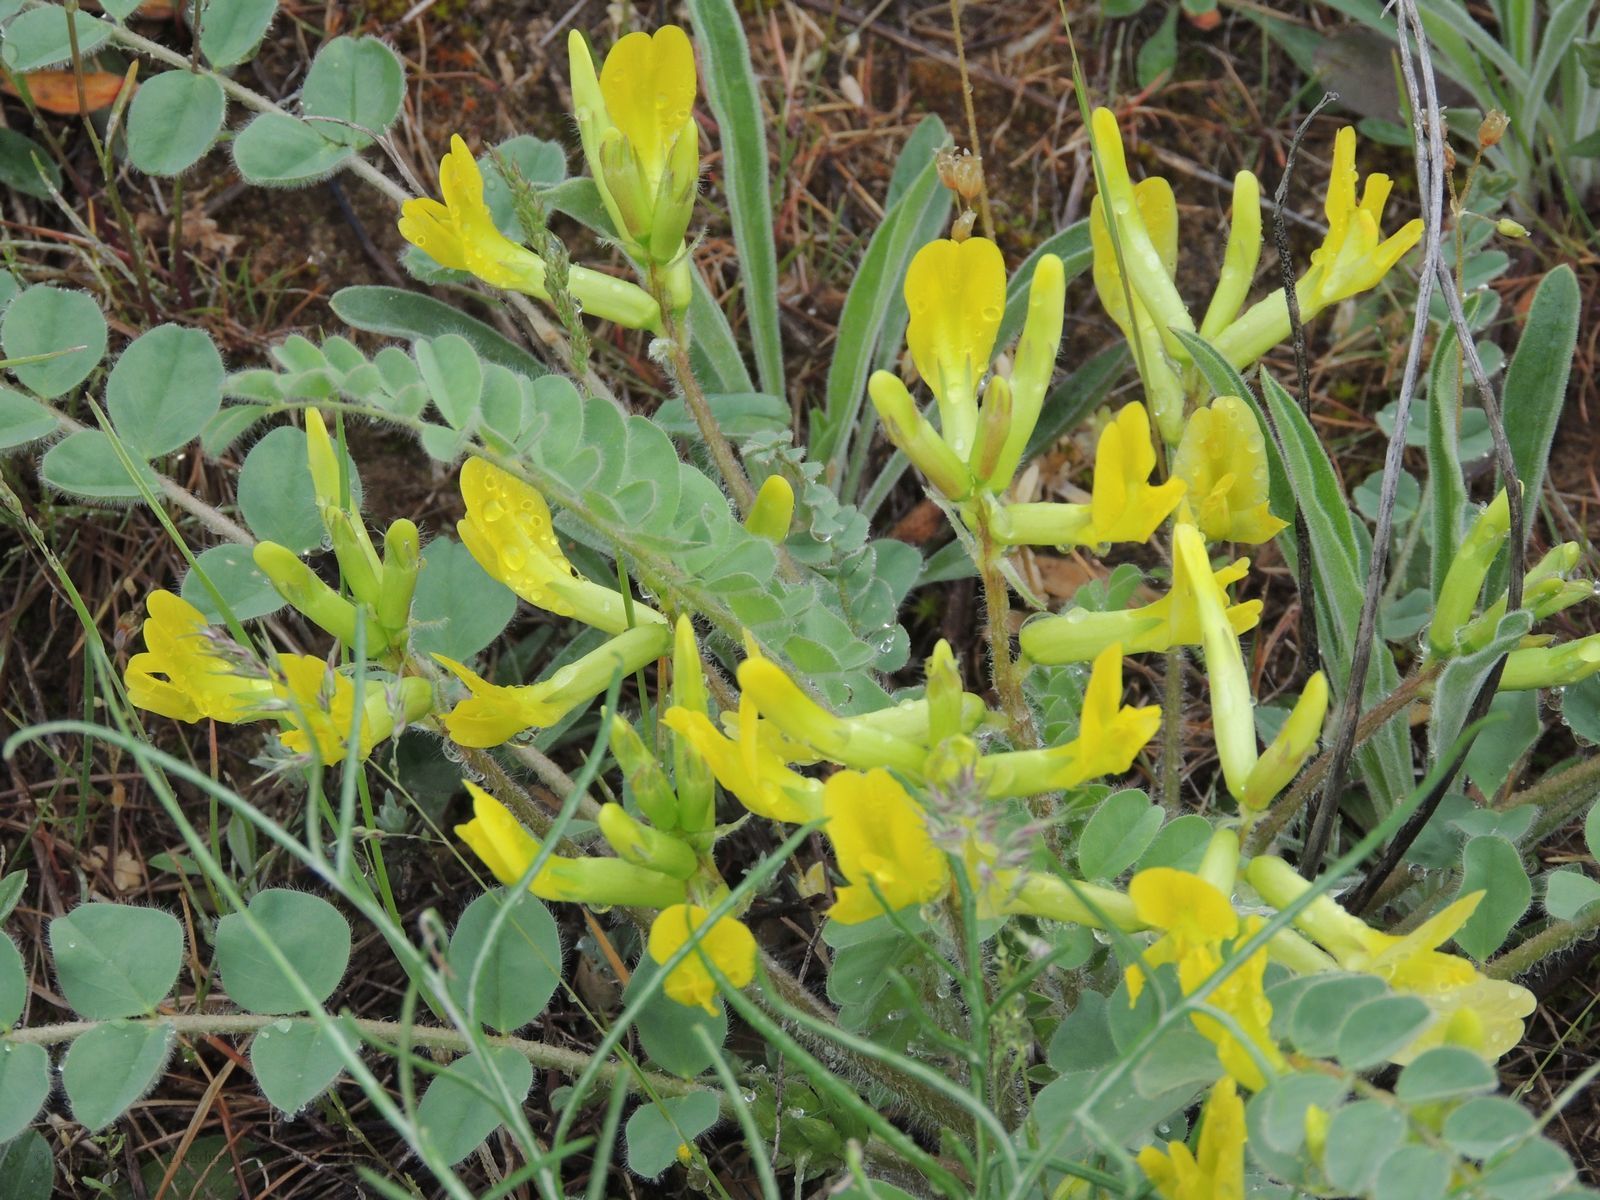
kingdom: Plantae
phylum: Tracheophyta
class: Magnoliopsida
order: Fabales
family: Fabaceae
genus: Astragalus
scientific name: Astragalus longipetalus
